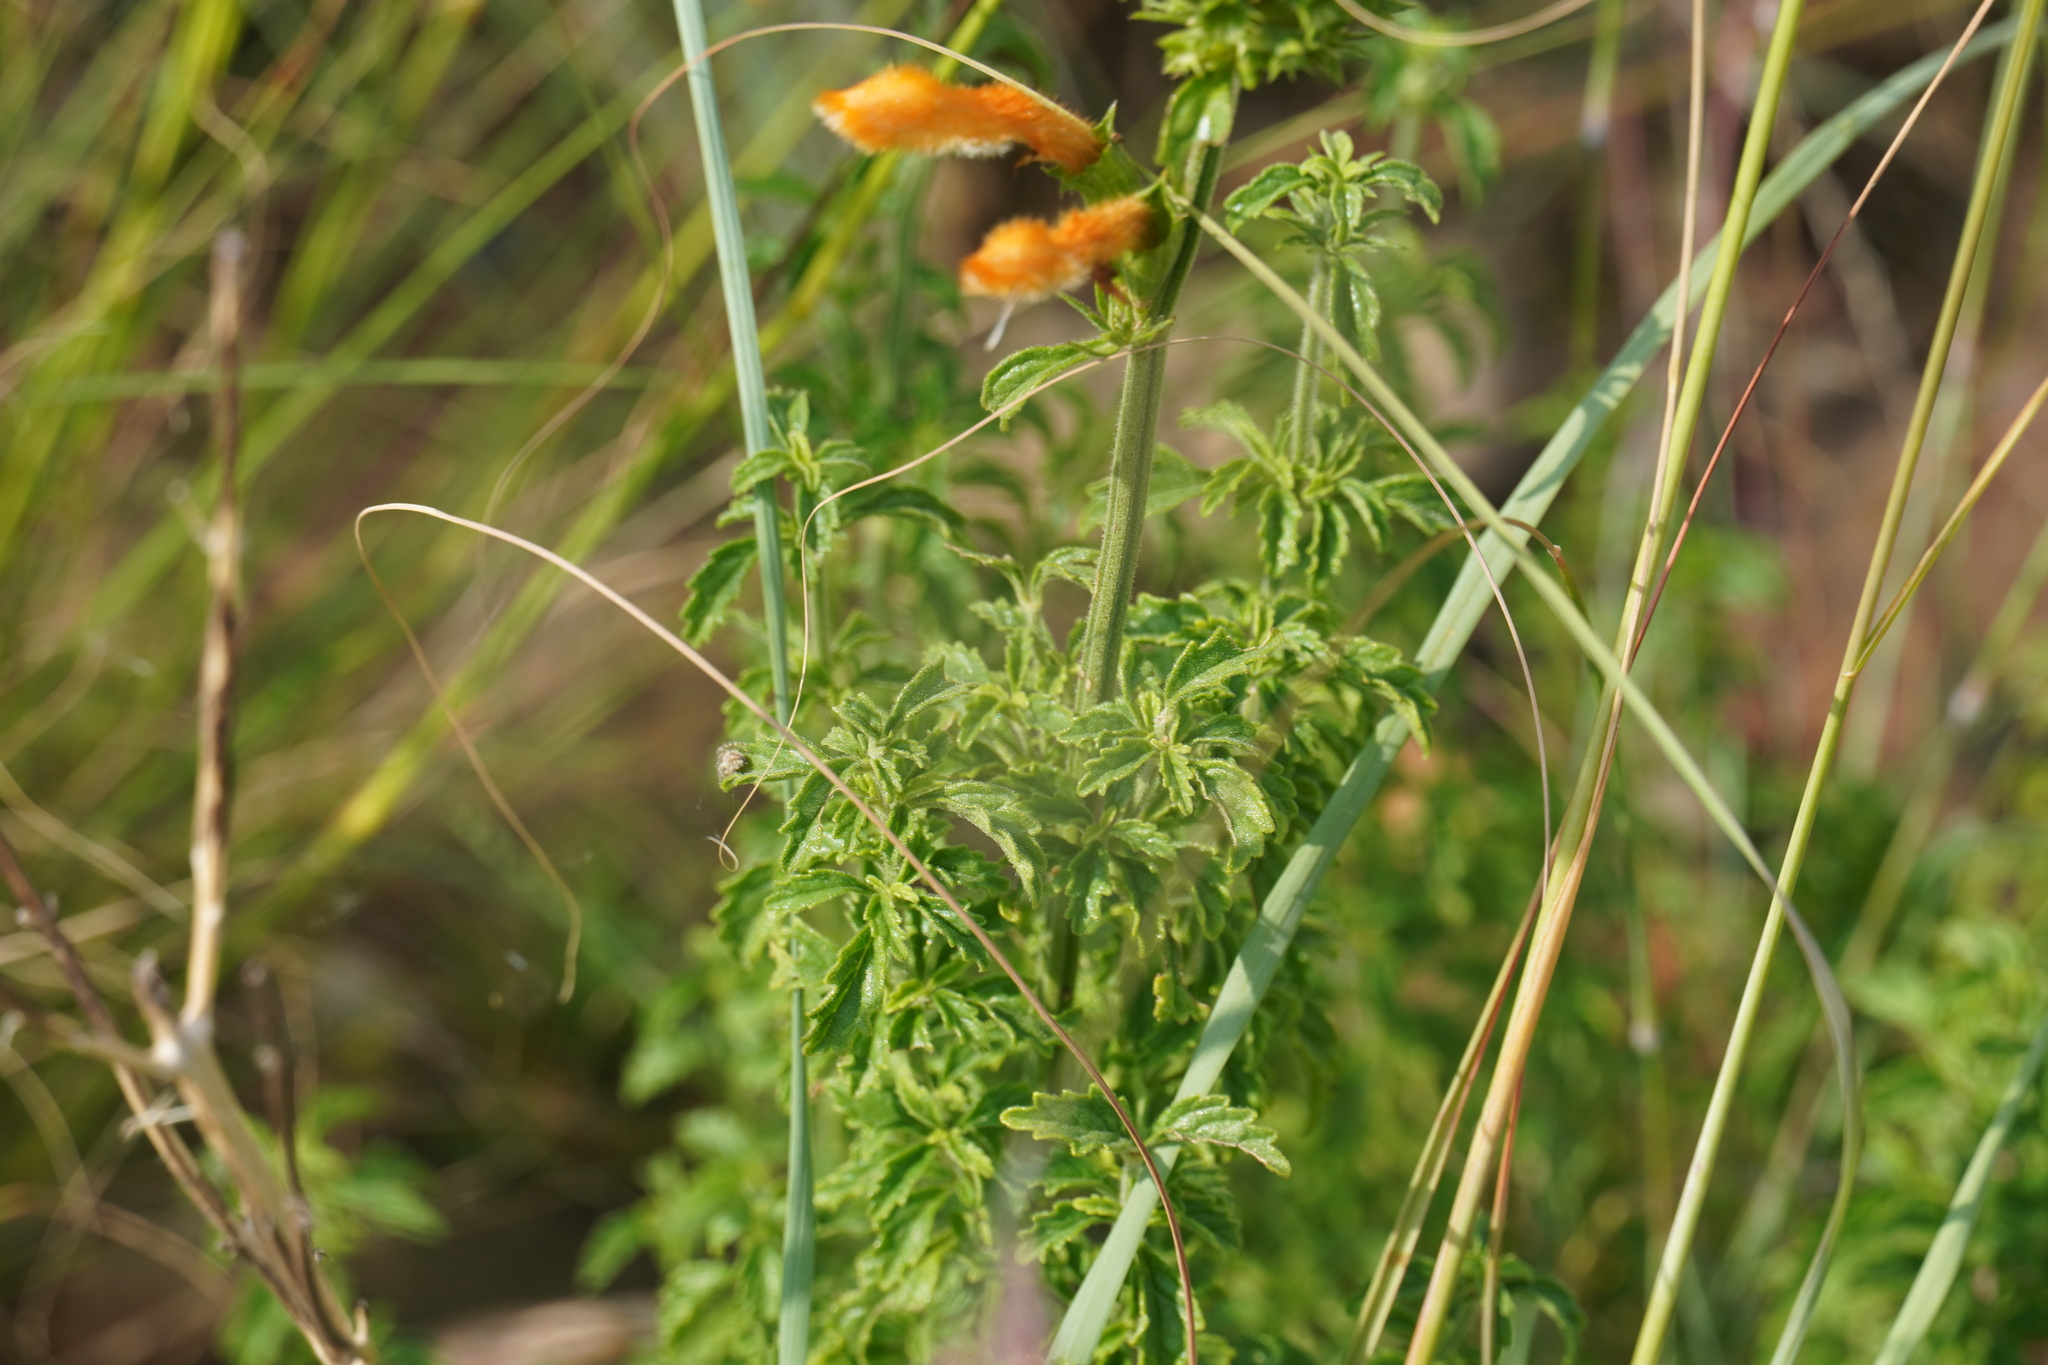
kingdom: Plantae
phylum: Tracheophyta
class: Magnoliopsida
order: Lamiales
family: Lamiaceae
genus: Leonotis
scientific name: Leonotis ocymifolia
